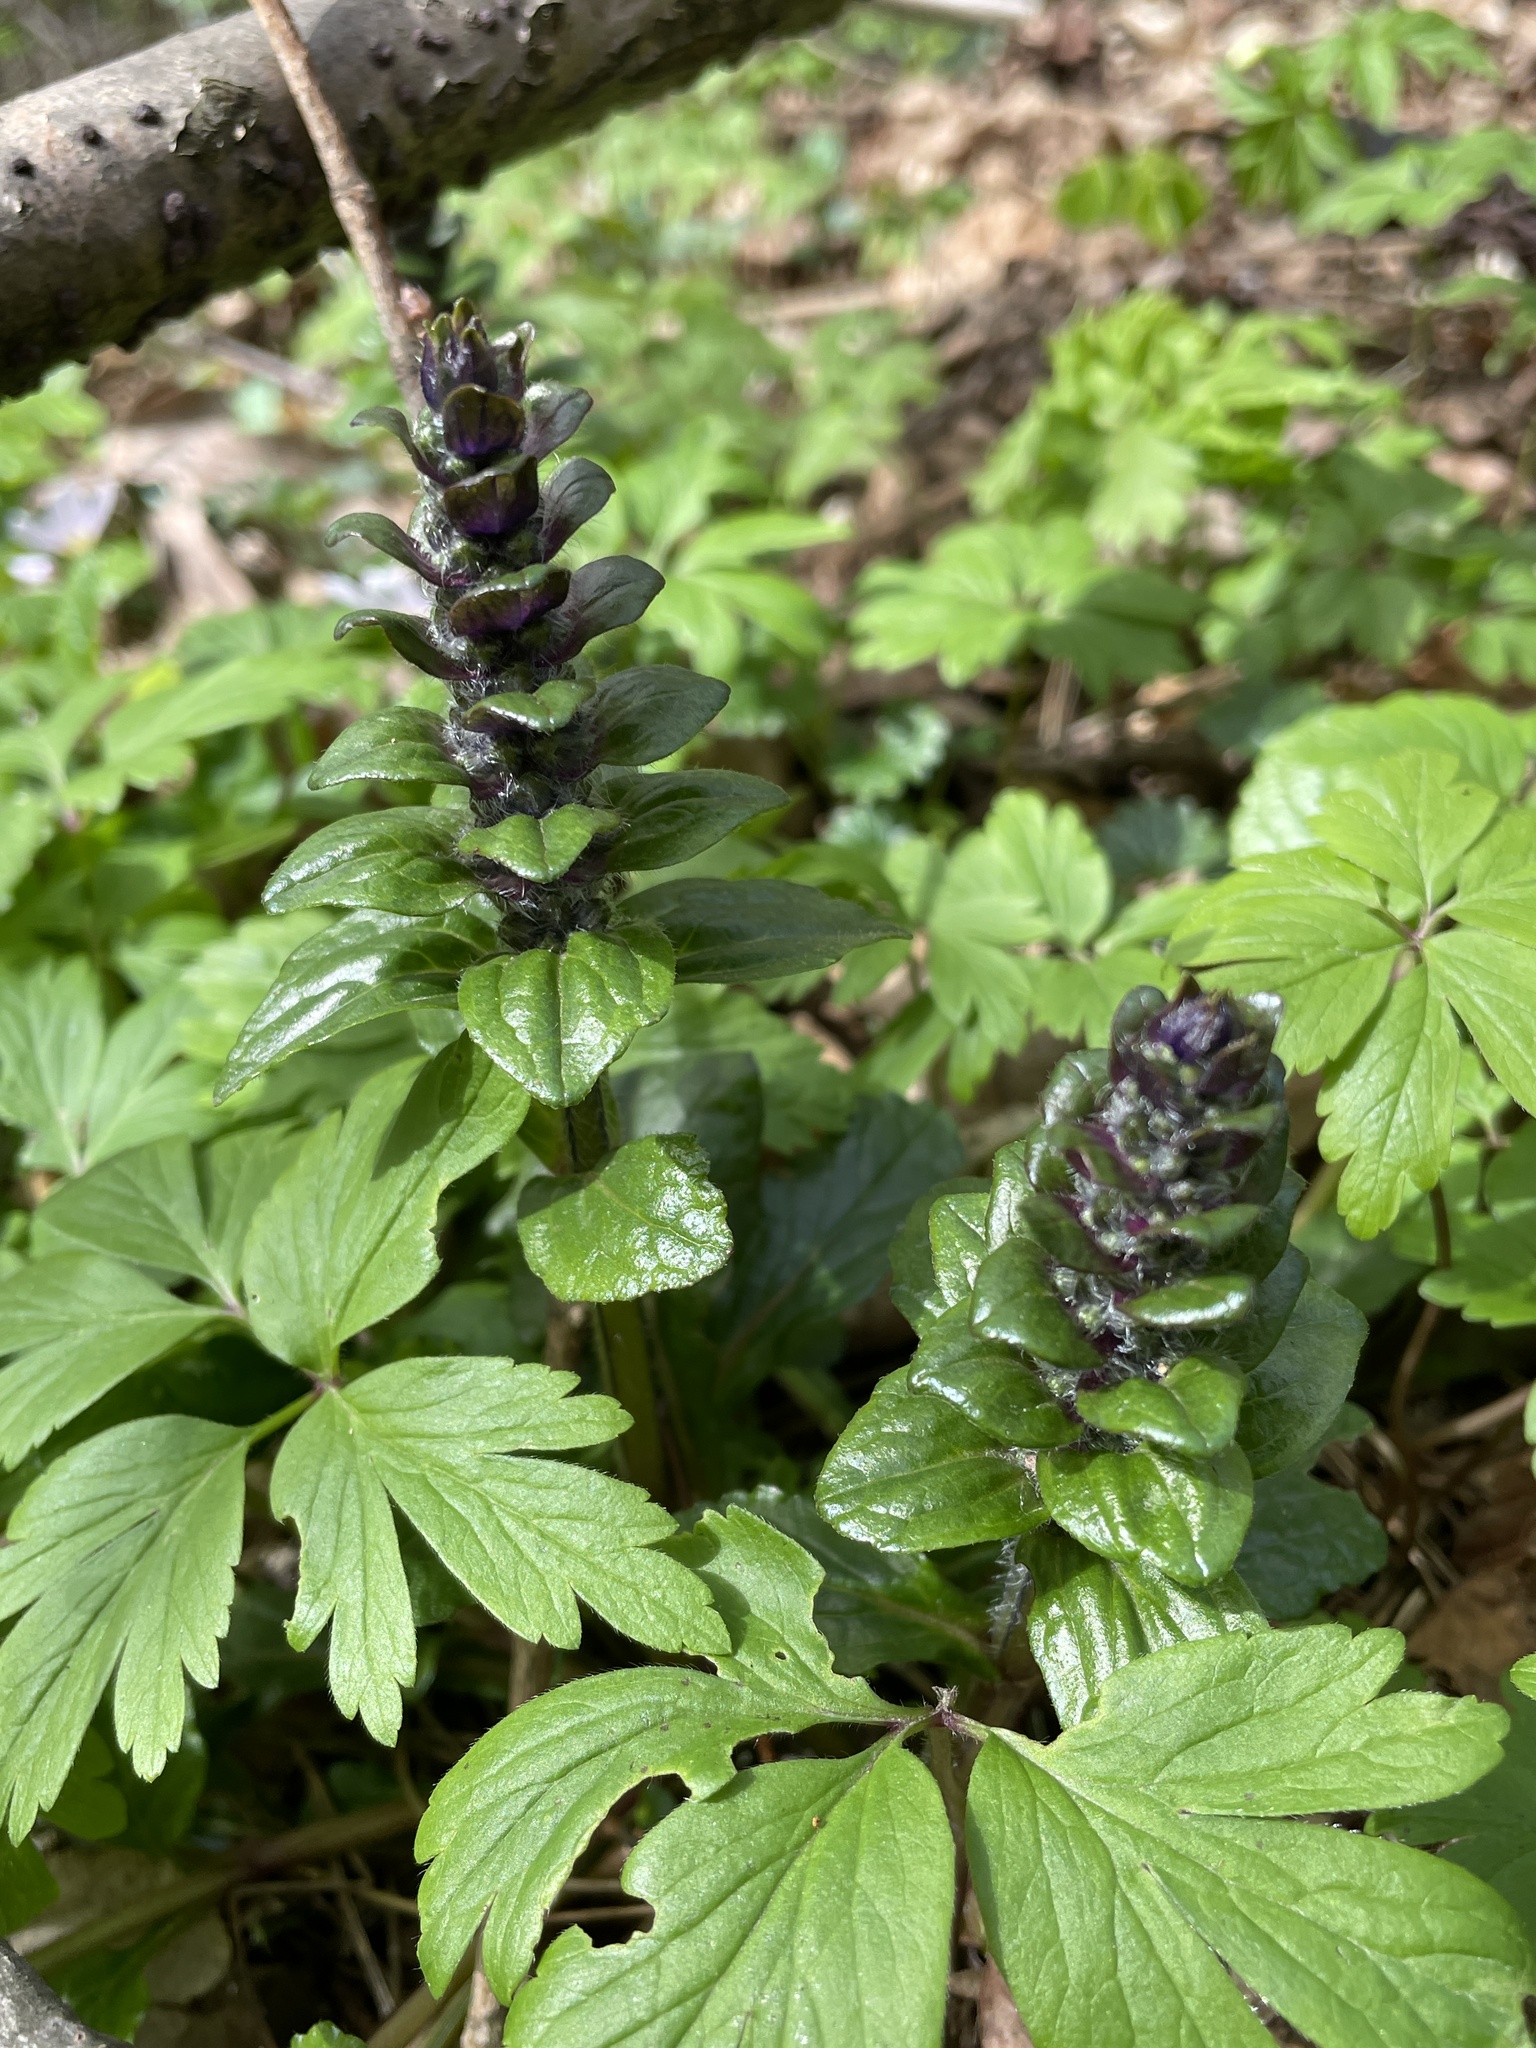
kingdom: Plantae
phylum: Tracheophyta
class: Magnoliopsida
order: Lamiales
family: Lamiaceae
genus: Ajuga
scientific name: Ajuga reptans
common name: Bugle
